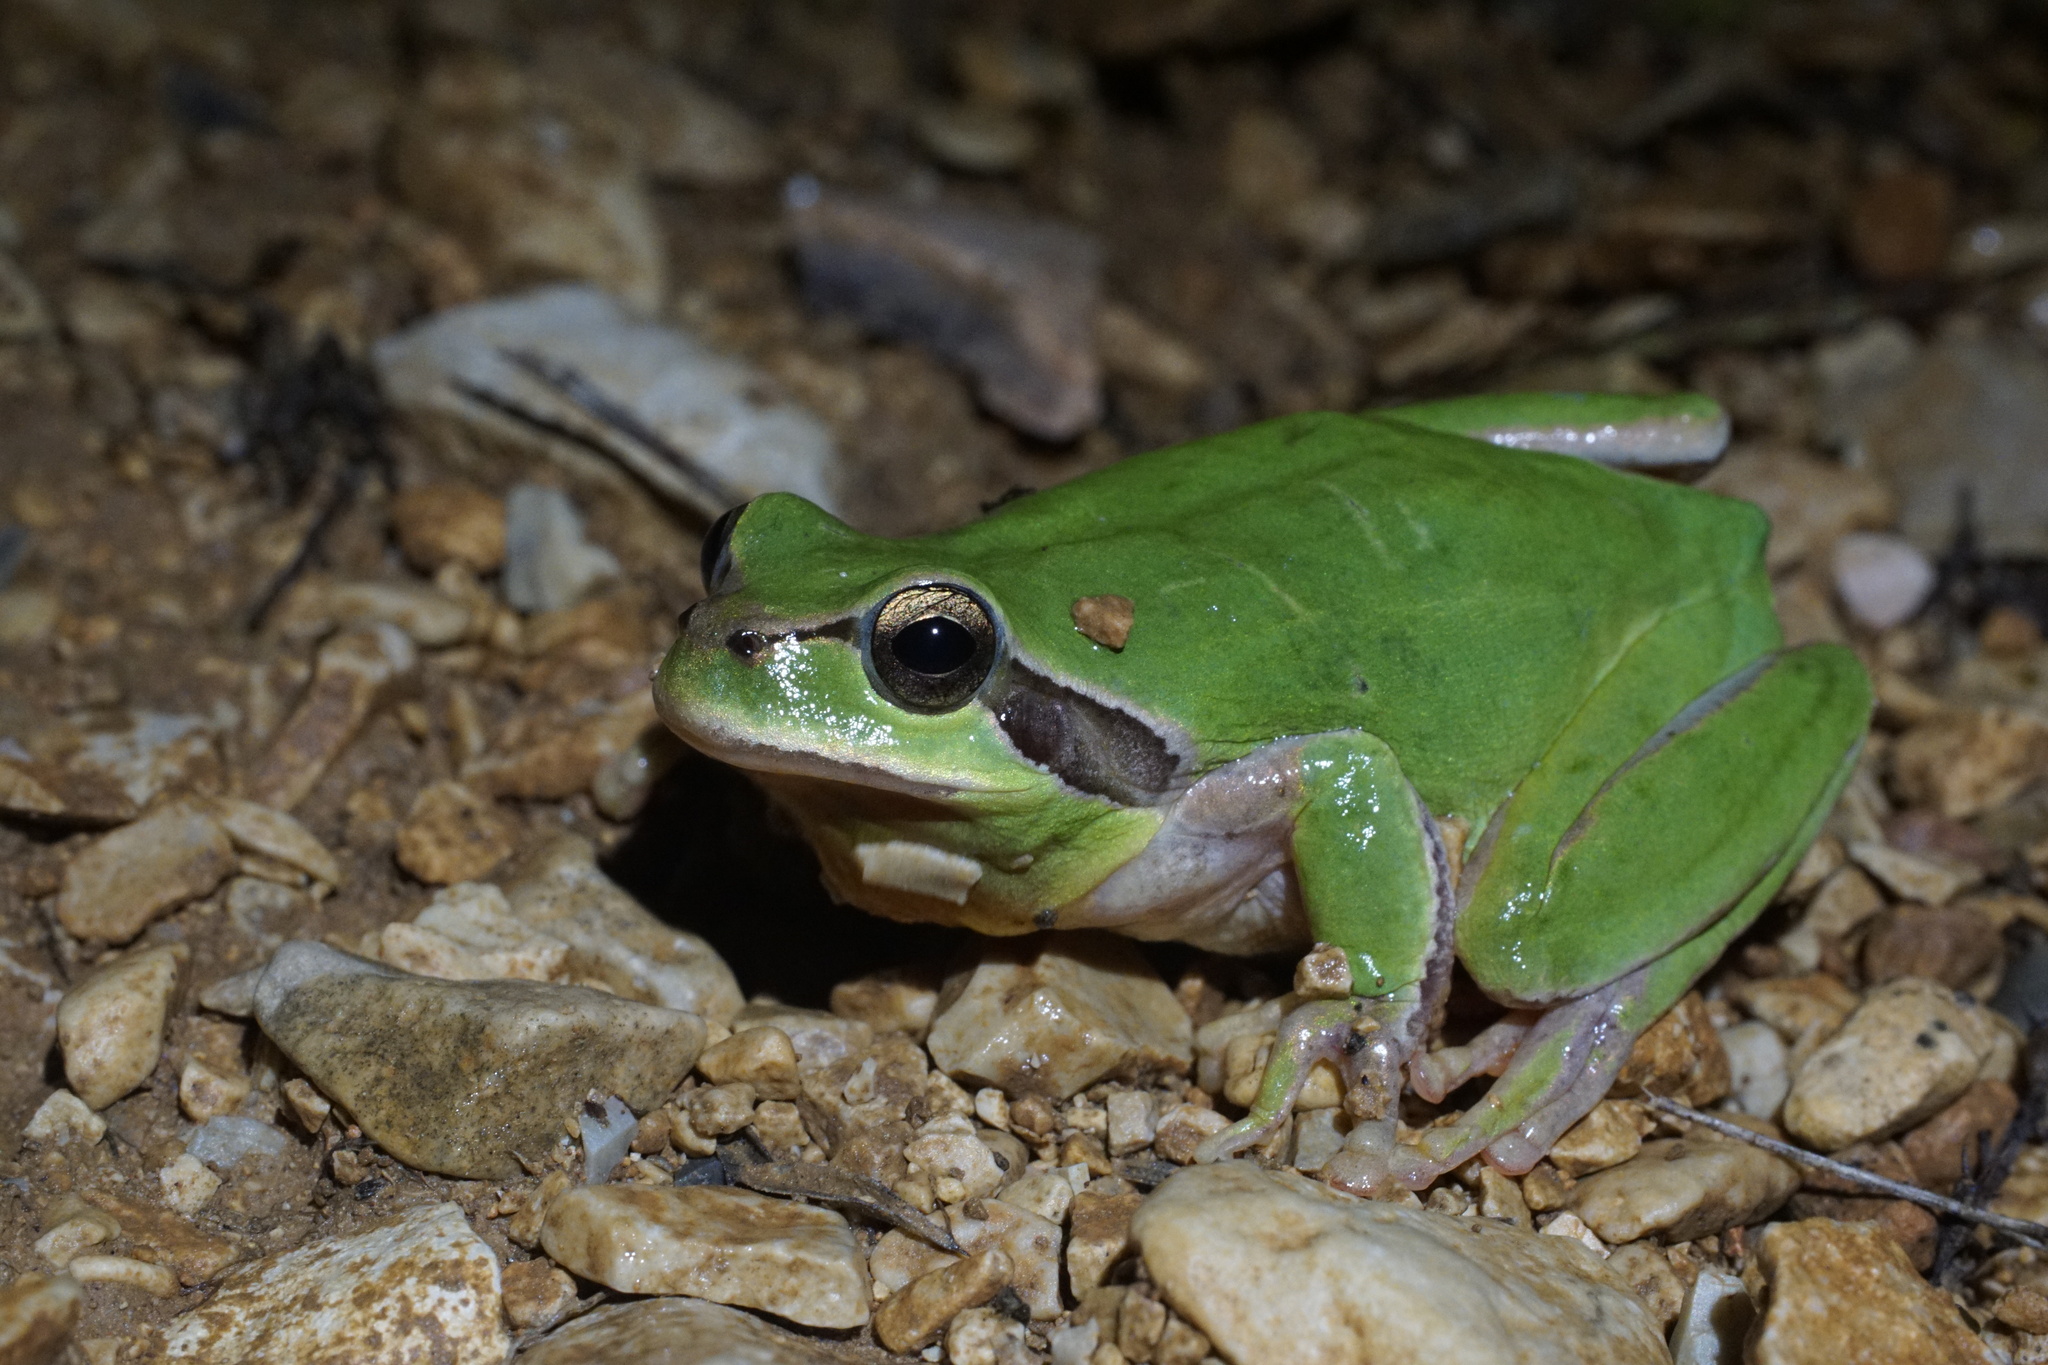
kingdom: Animalia
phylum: Chordata
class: Amphibia
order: Anura
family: Hylidae
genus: Hyla
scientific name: Hyla meridionalis
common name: Stripeless tree frog
